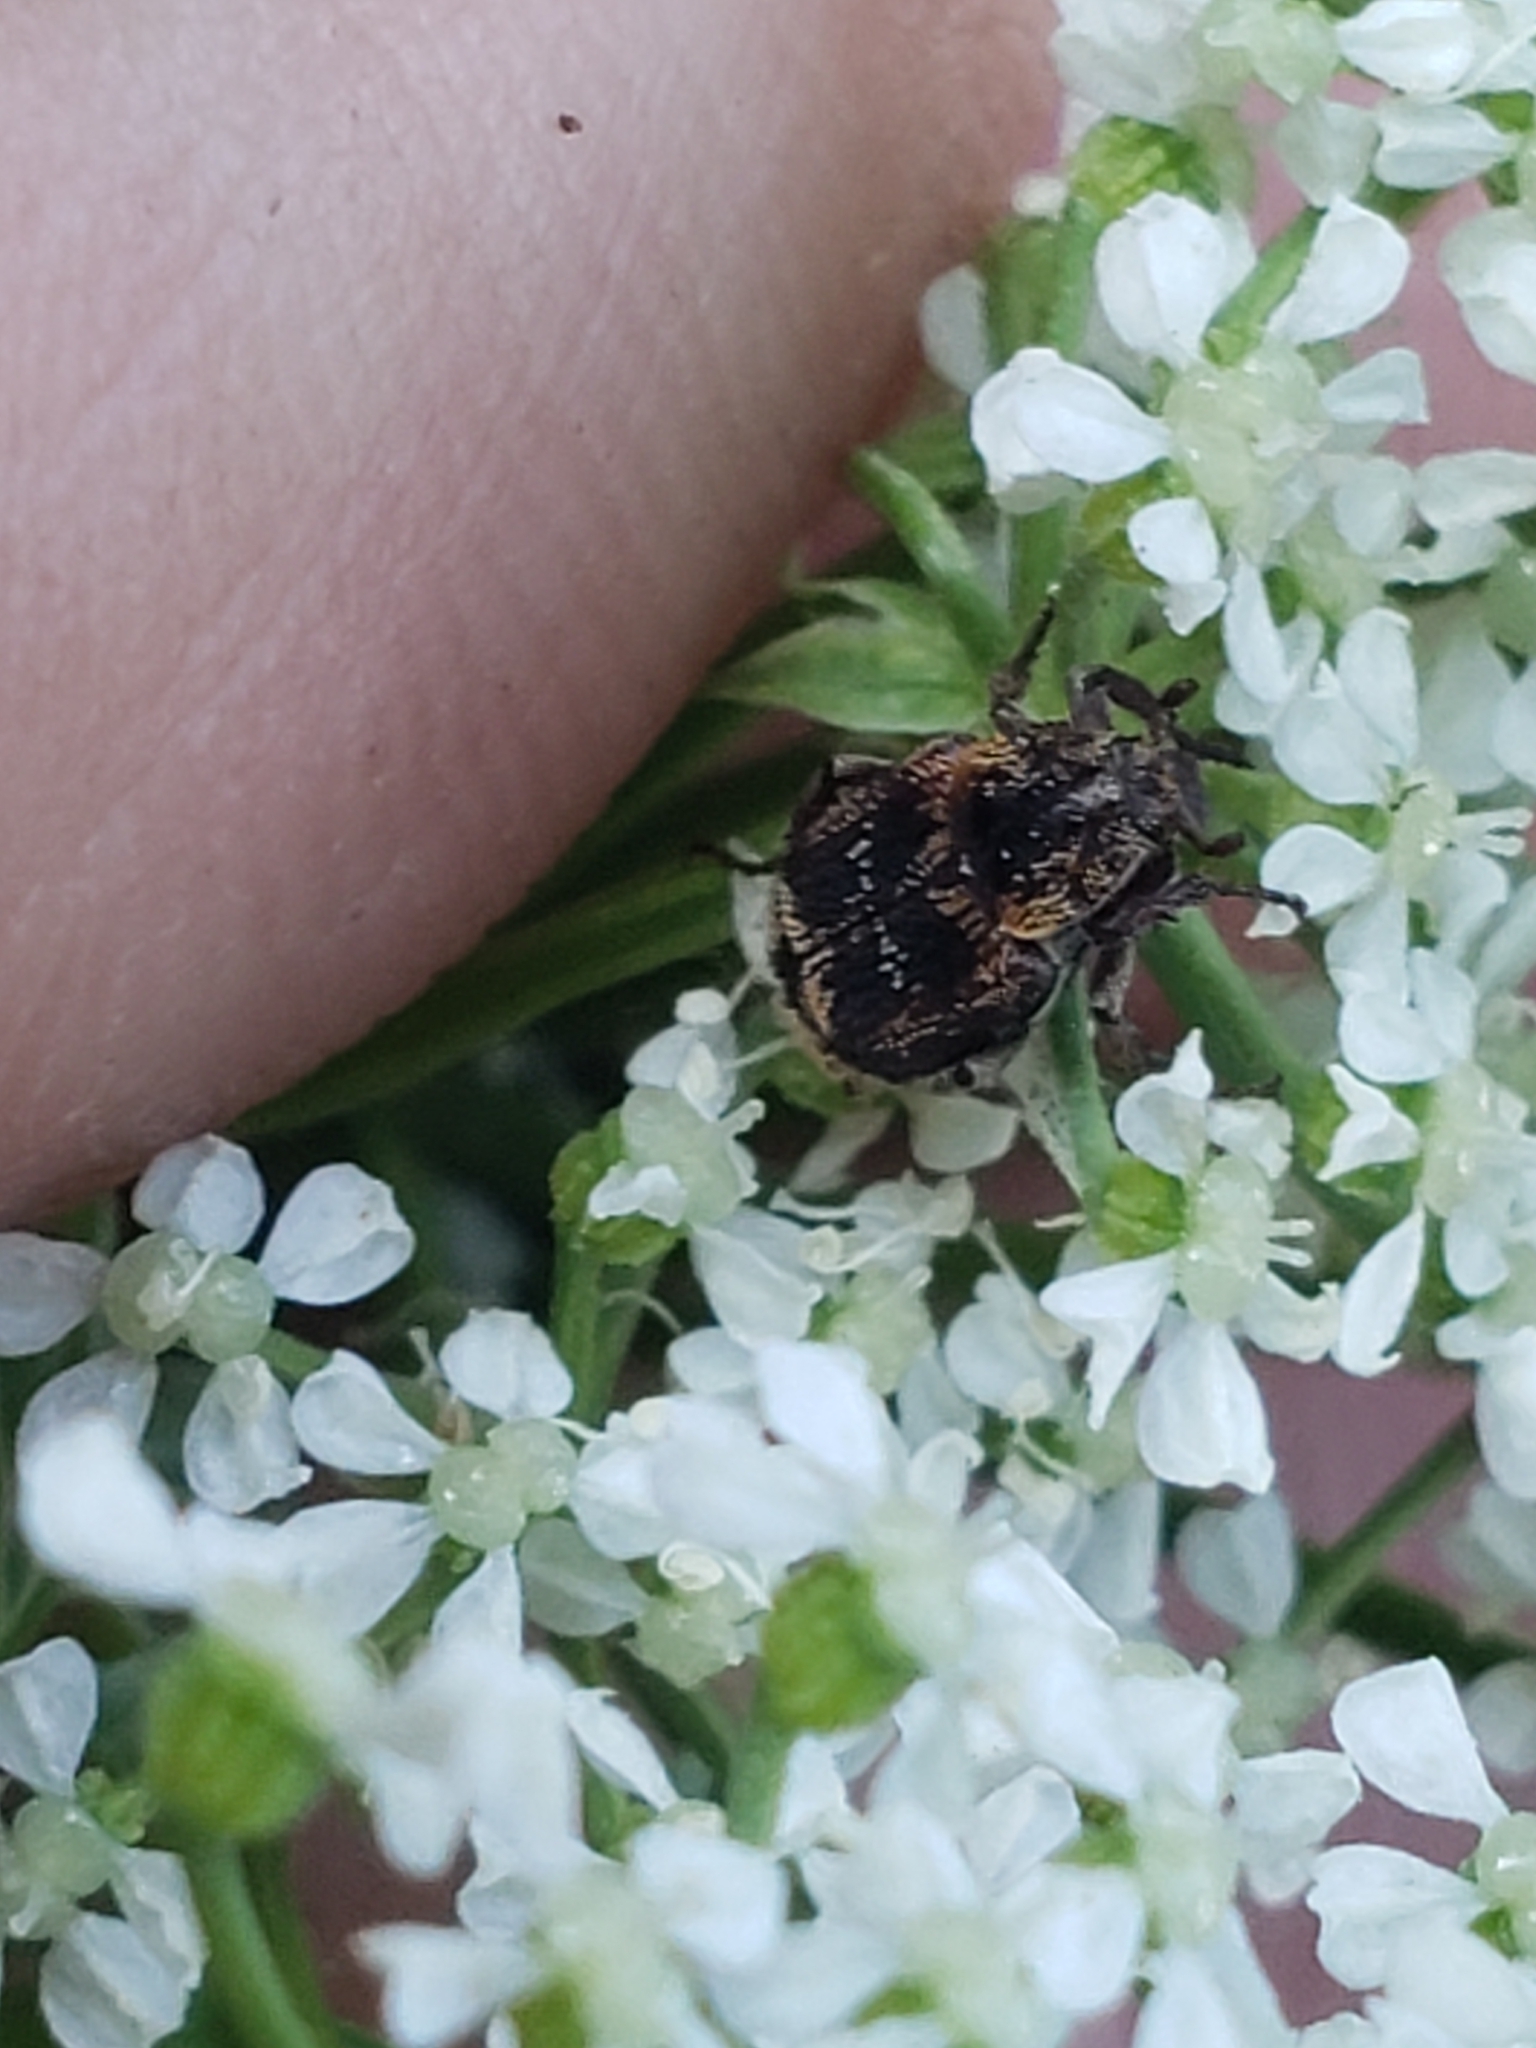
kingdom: Animalia
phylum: Arthropoda
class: Insecta
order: Coleoptera
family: Scarabaeidae
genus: Valgus
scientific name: Valgus canaliculatus
